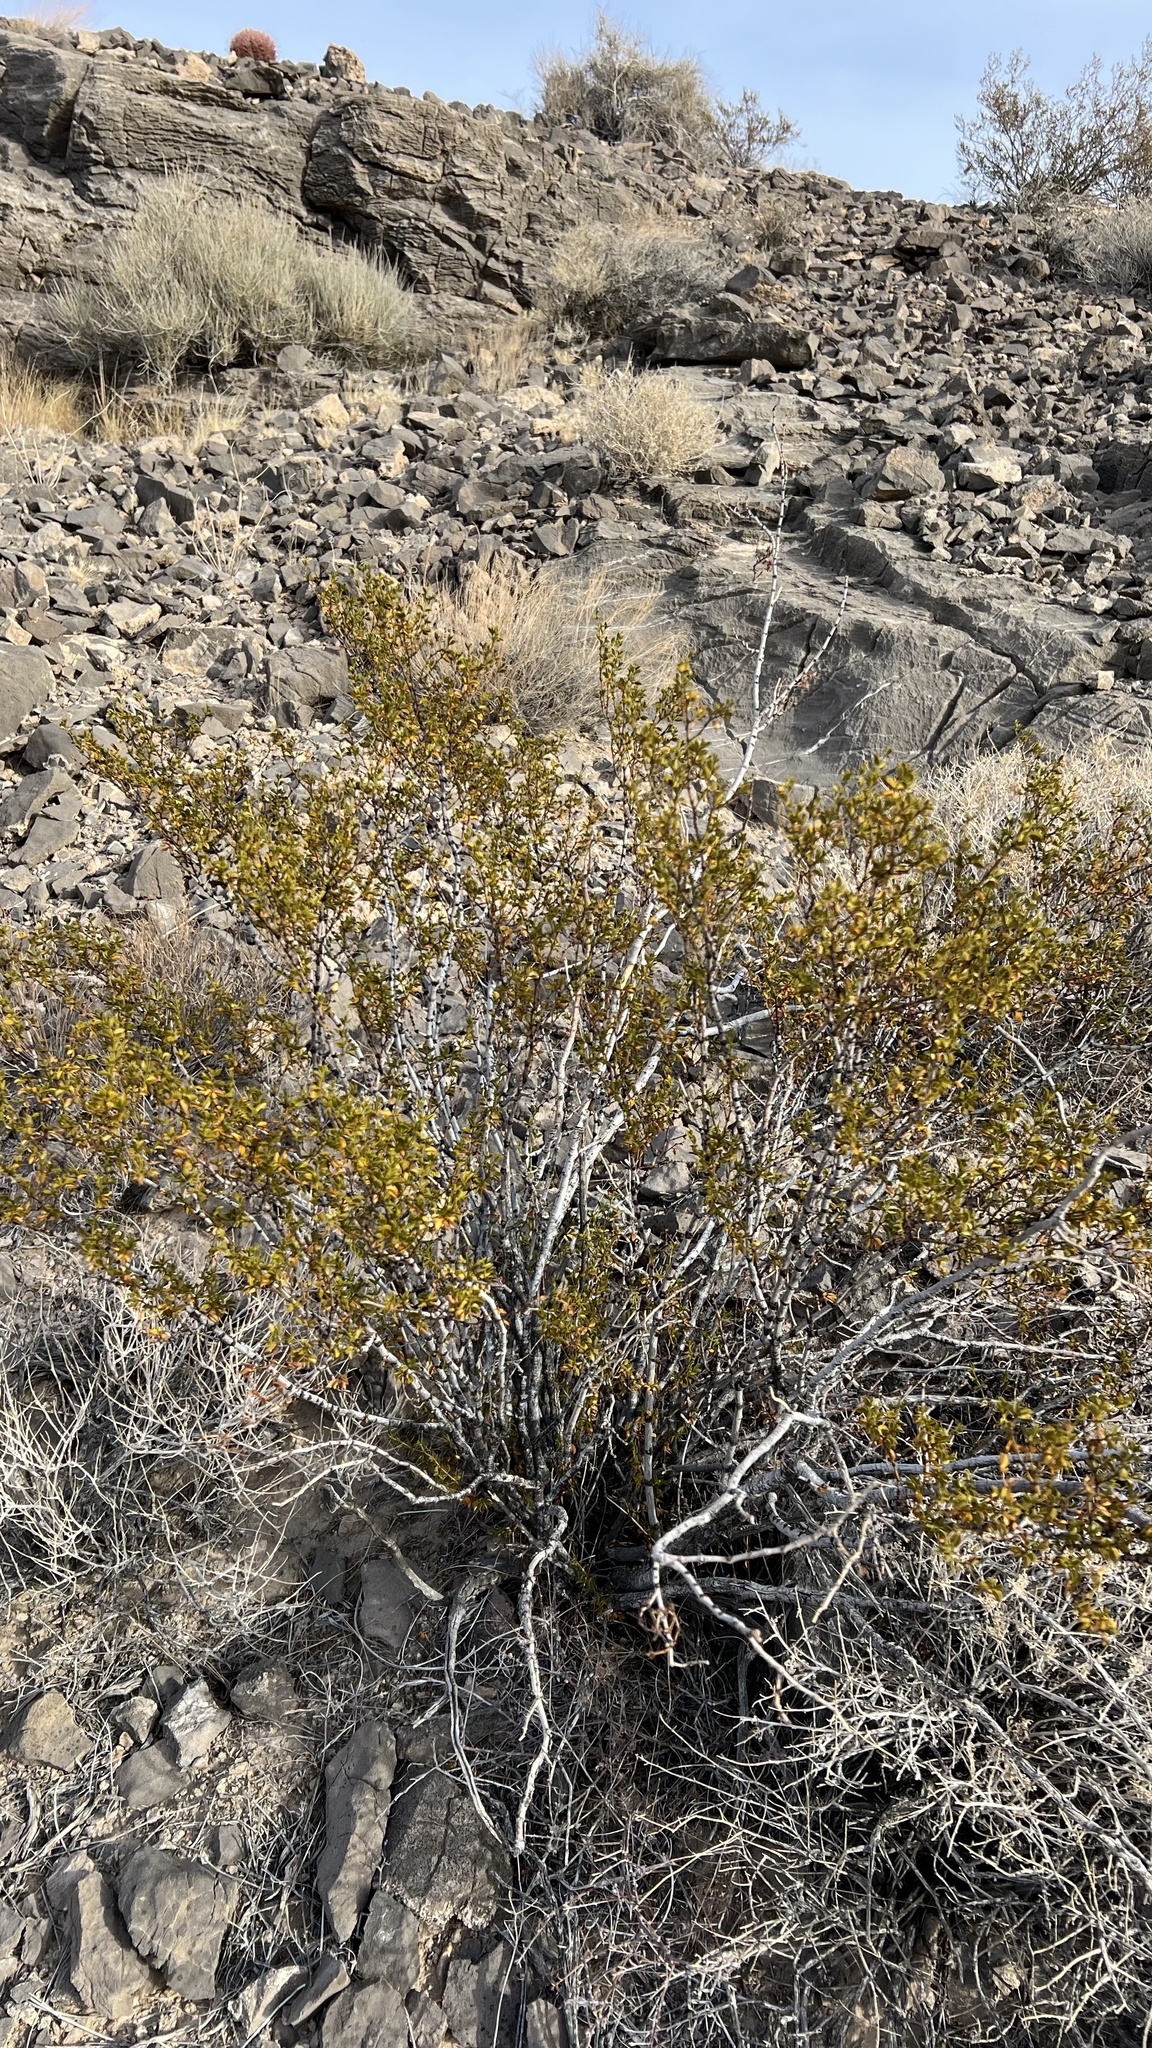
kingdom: Plantae
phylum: Tracheophyta
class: Magnoliopsida
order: Zygophyllales
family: Zygophyllaceae
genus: Larrea
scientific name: Larrea tridentata
